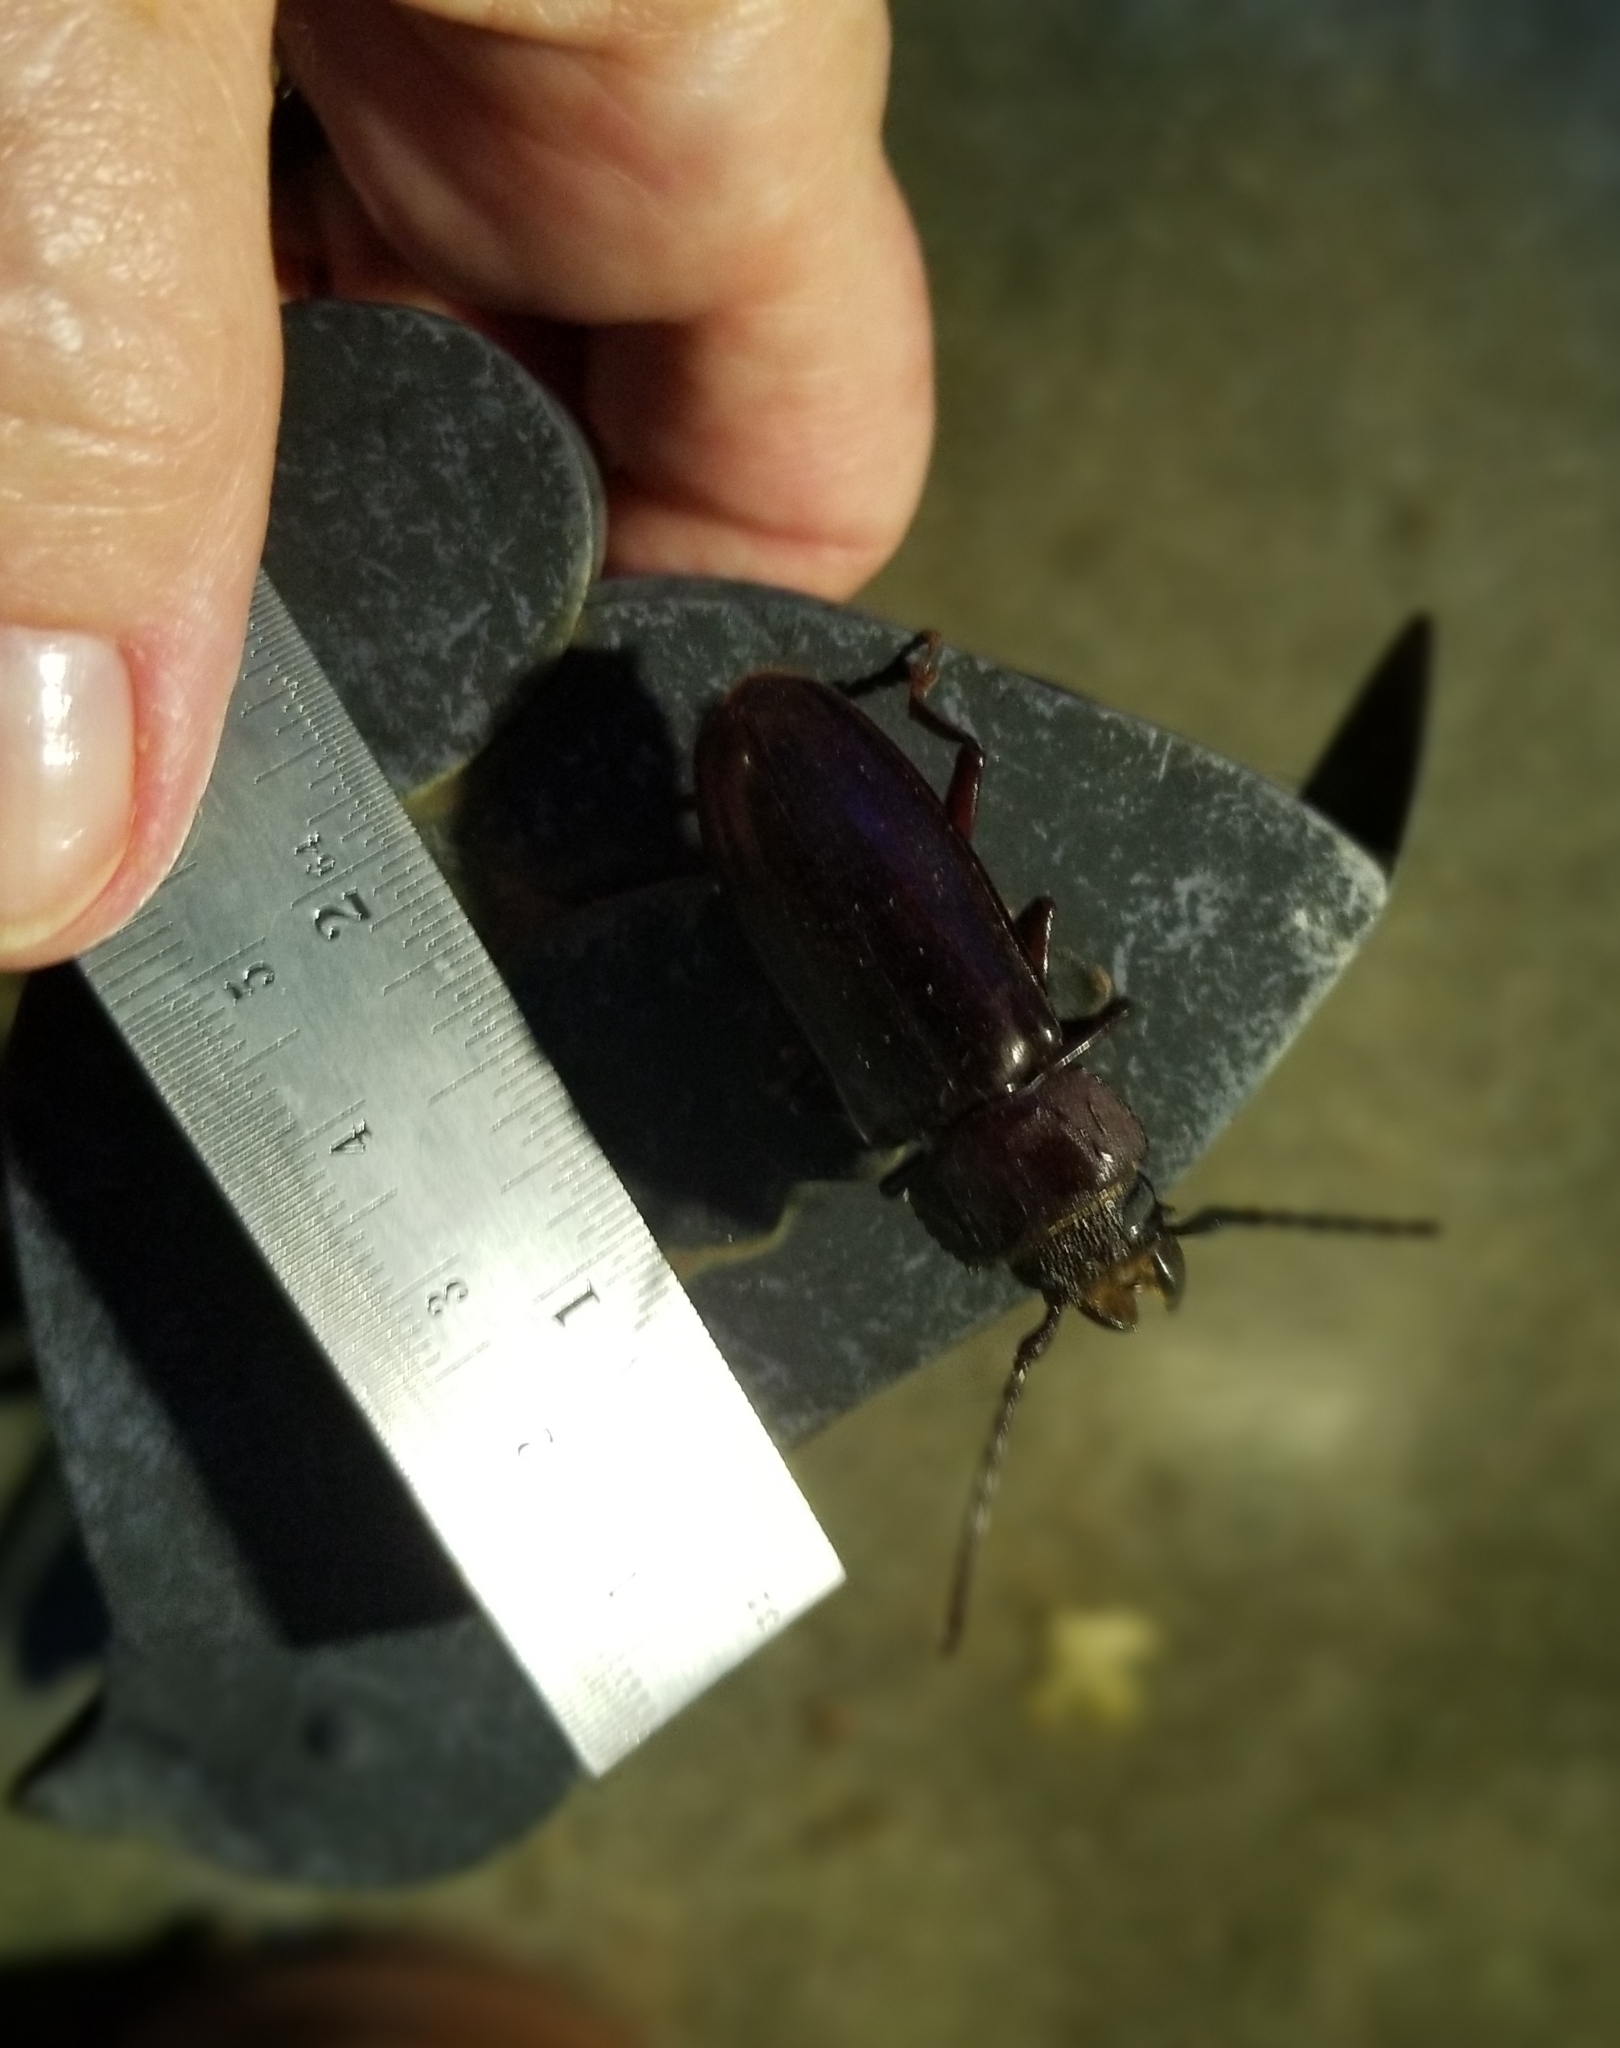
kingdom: Animalia
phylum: Arthropoda
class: Insecta
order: Coleoptera
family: Cerambycidae
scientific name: Cerambycidae
